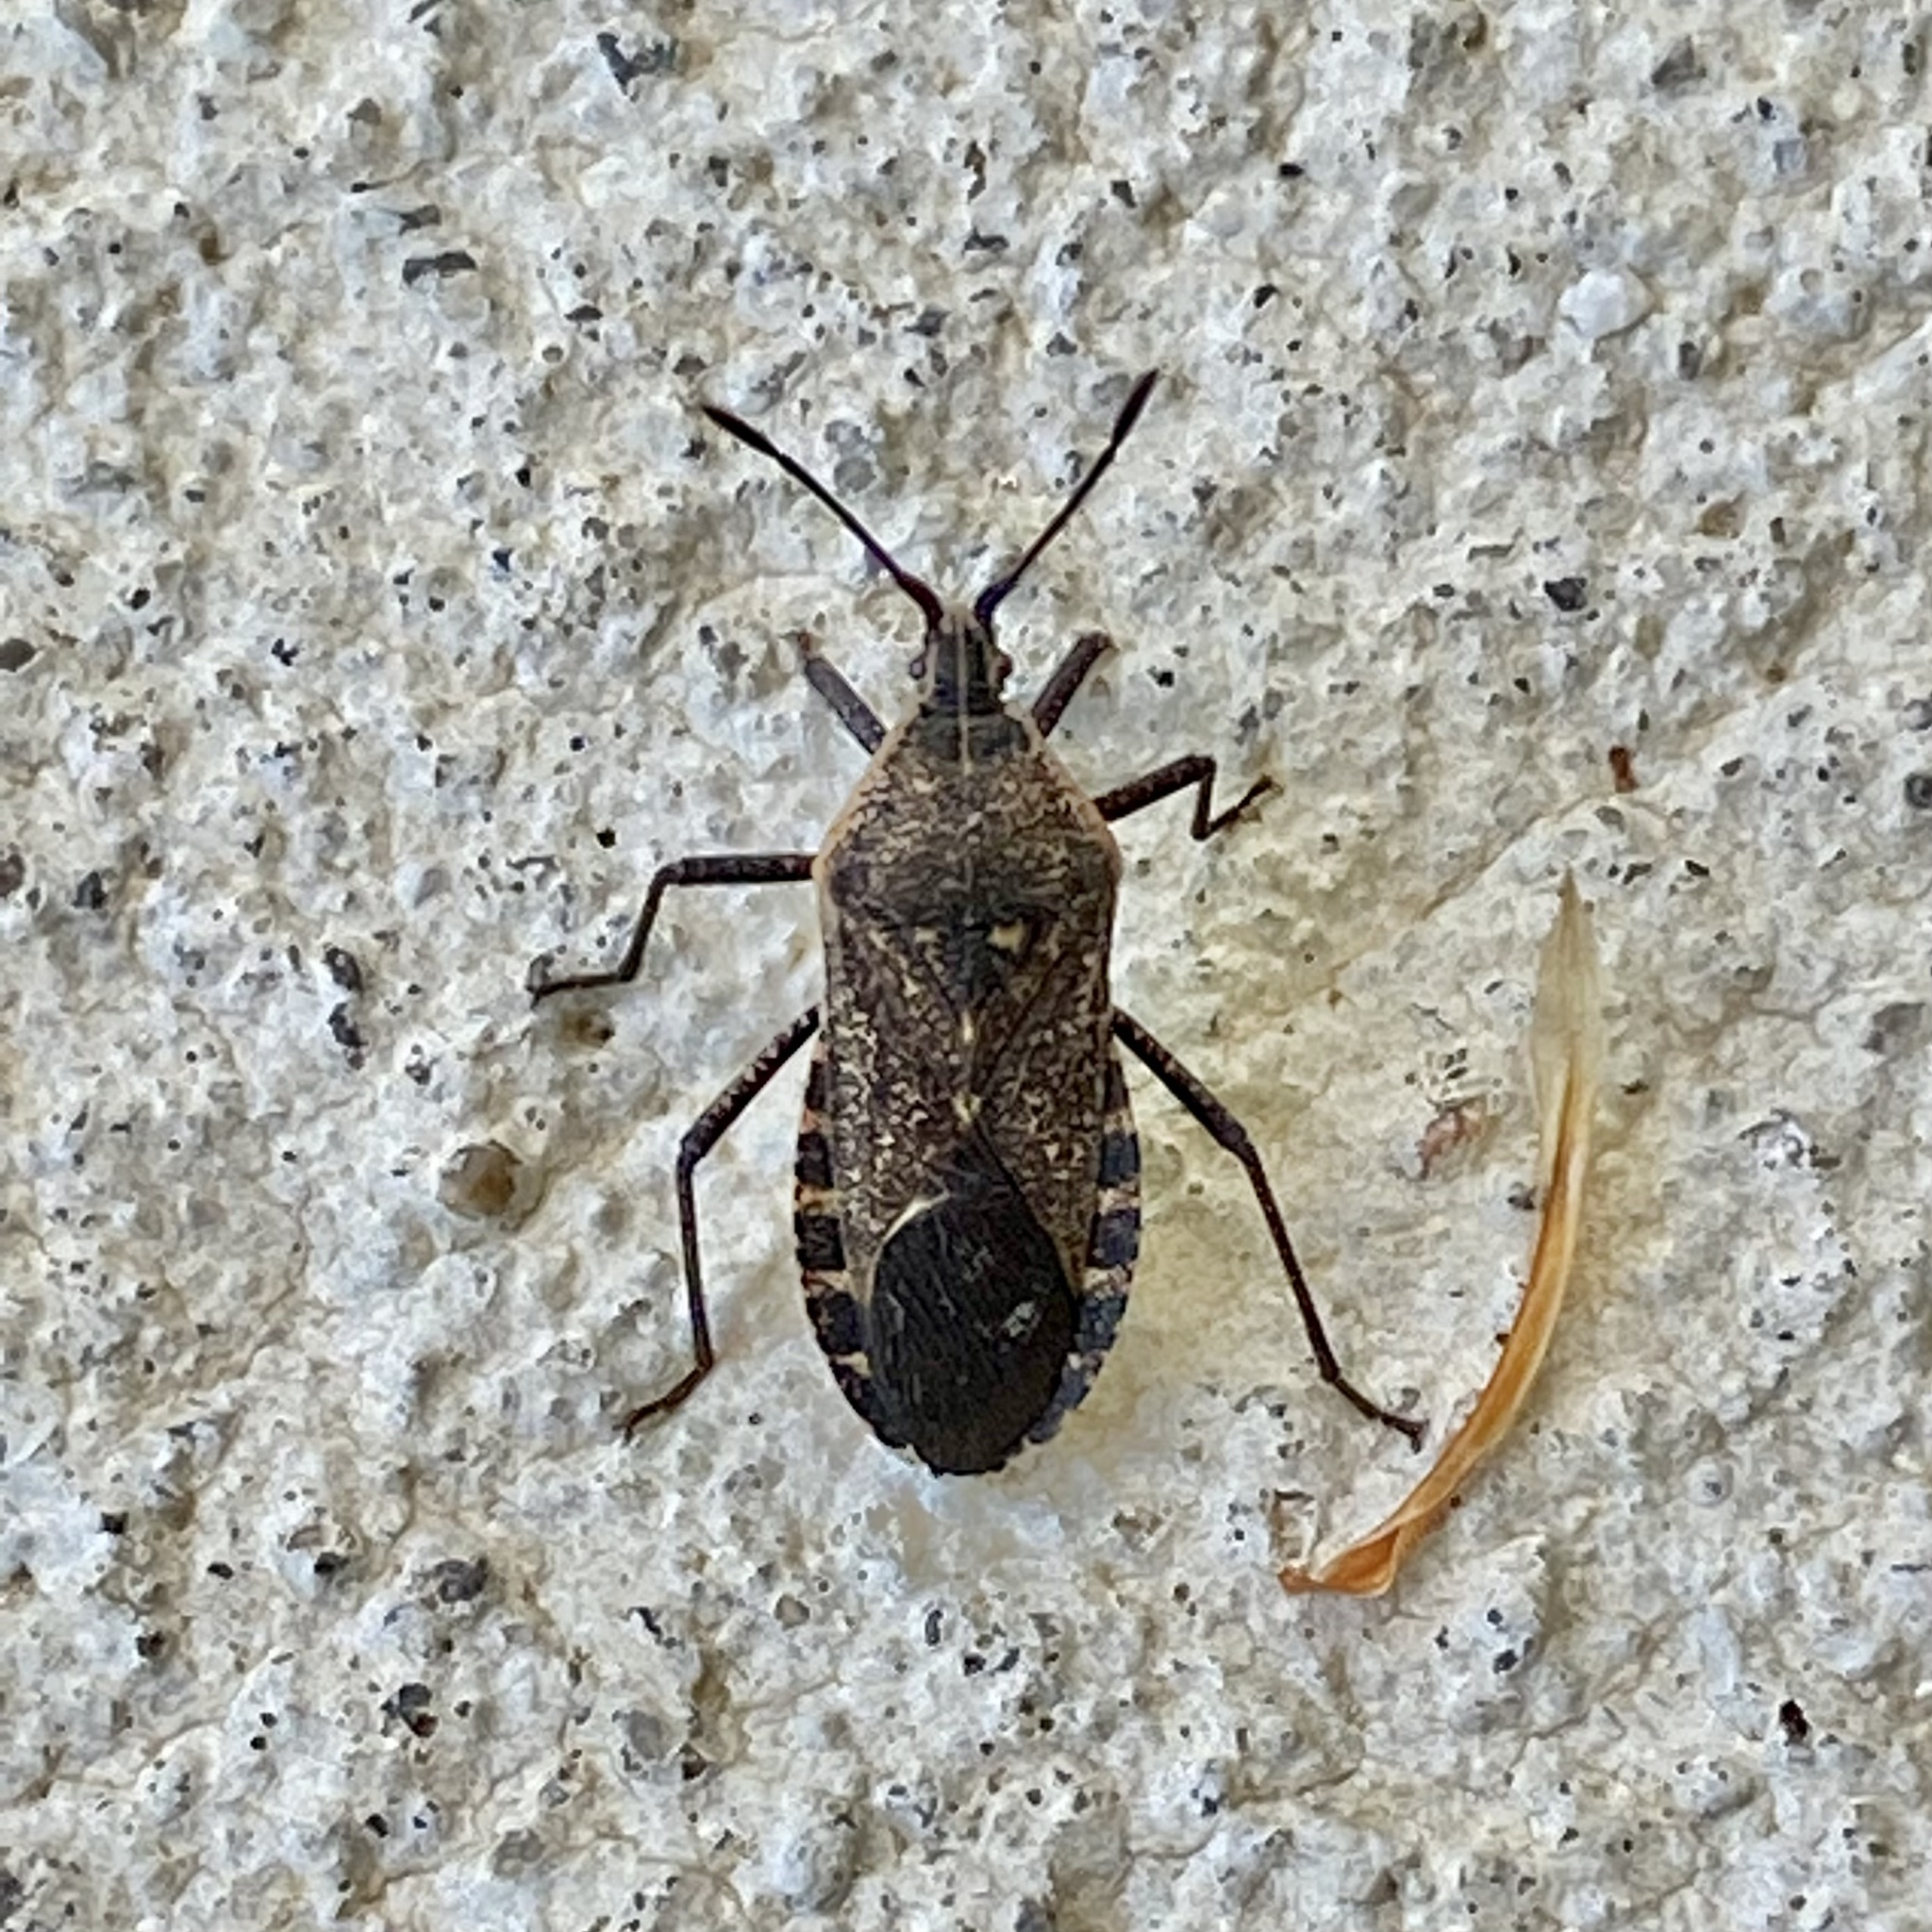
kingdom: Animalia
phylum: Arthropoda
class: Insecta
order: Hemiptera
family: Coreidae
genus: Anasa
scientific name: Anasa tristis
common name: Squash bug
